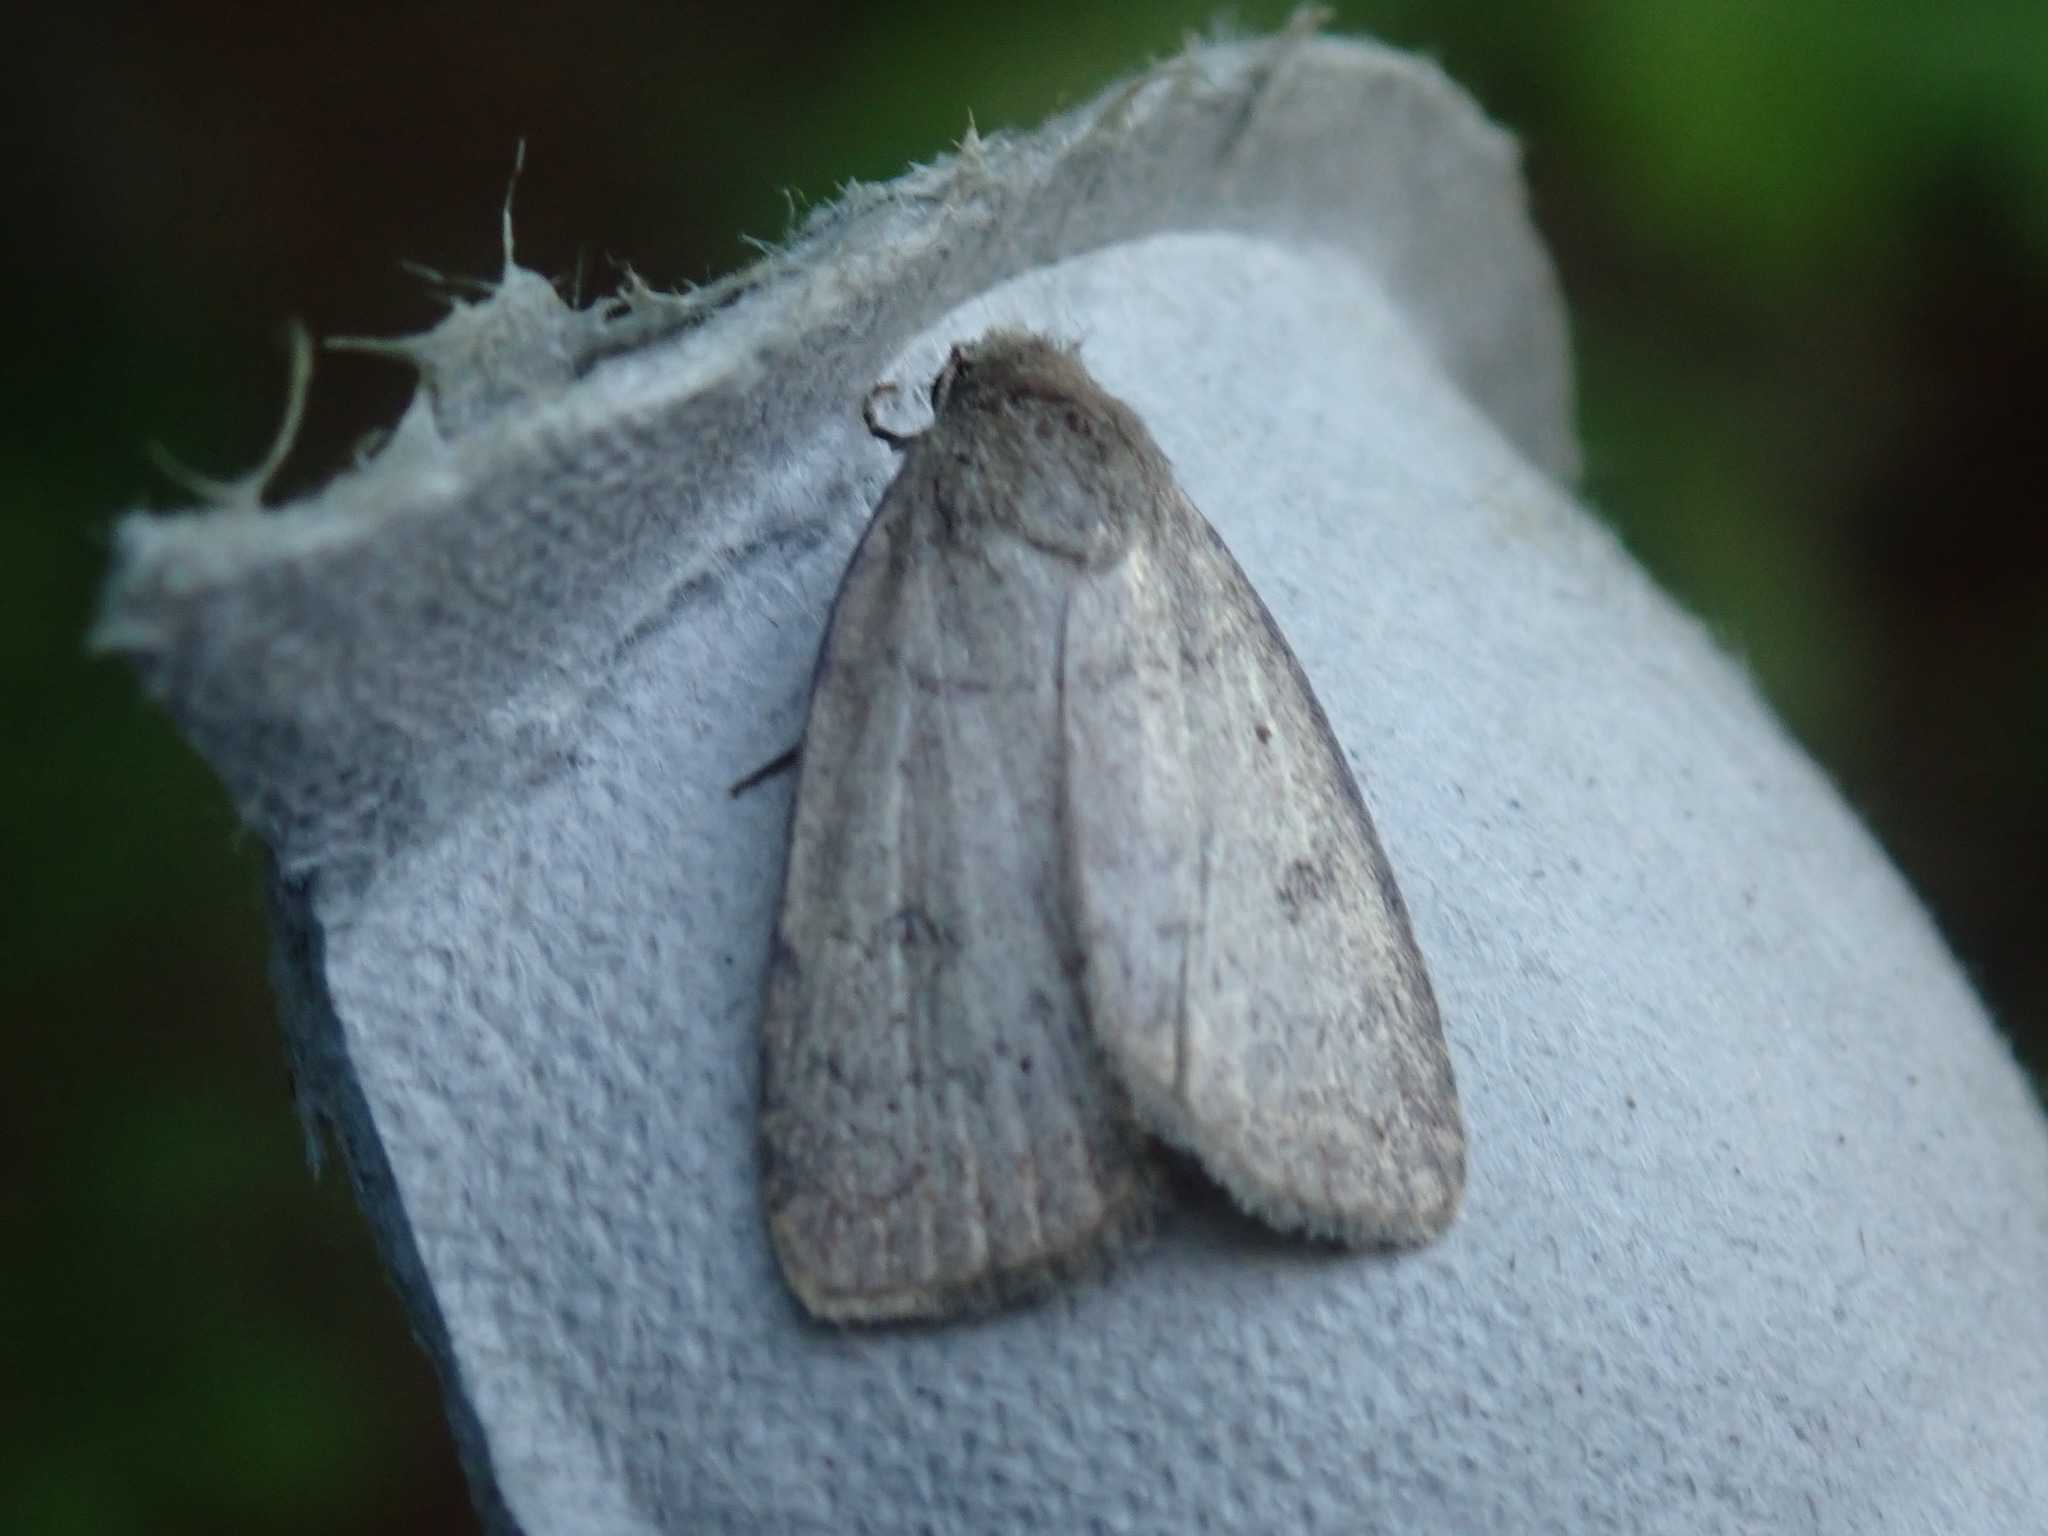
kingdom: Animalia
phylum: Arthropoda
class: Insecta
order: Lepidoptera
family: Noctuidae
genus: Athetis
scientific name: Athetis tarda
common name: Slowpoke moth
